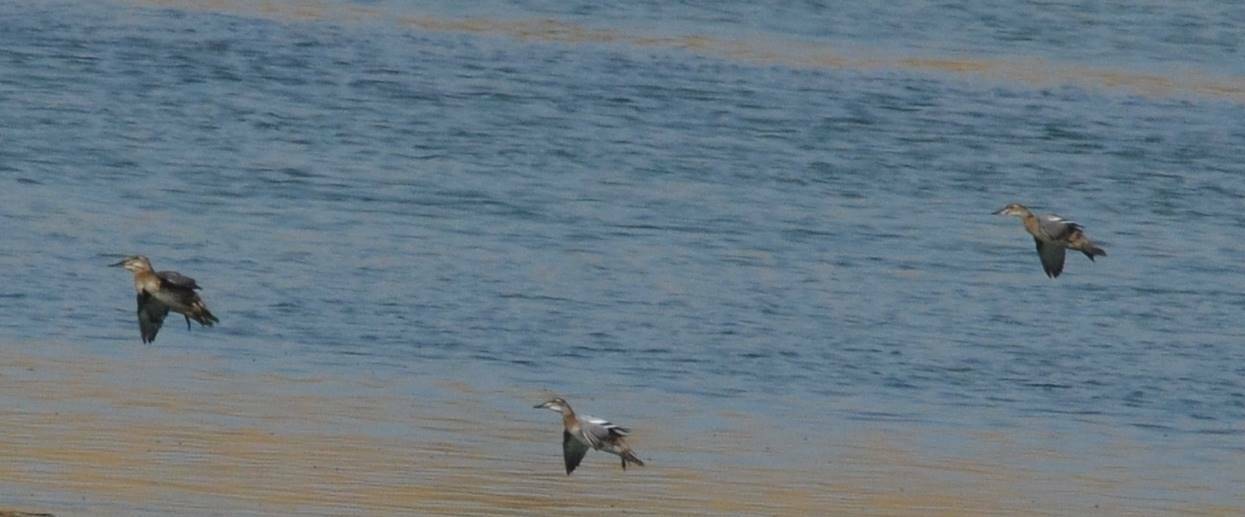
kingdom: Animalia
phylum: Chordata
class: Aves
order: Anseriformes
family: Anatidae
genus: Spatula
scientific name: Spatula querquedula
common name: Garganey
